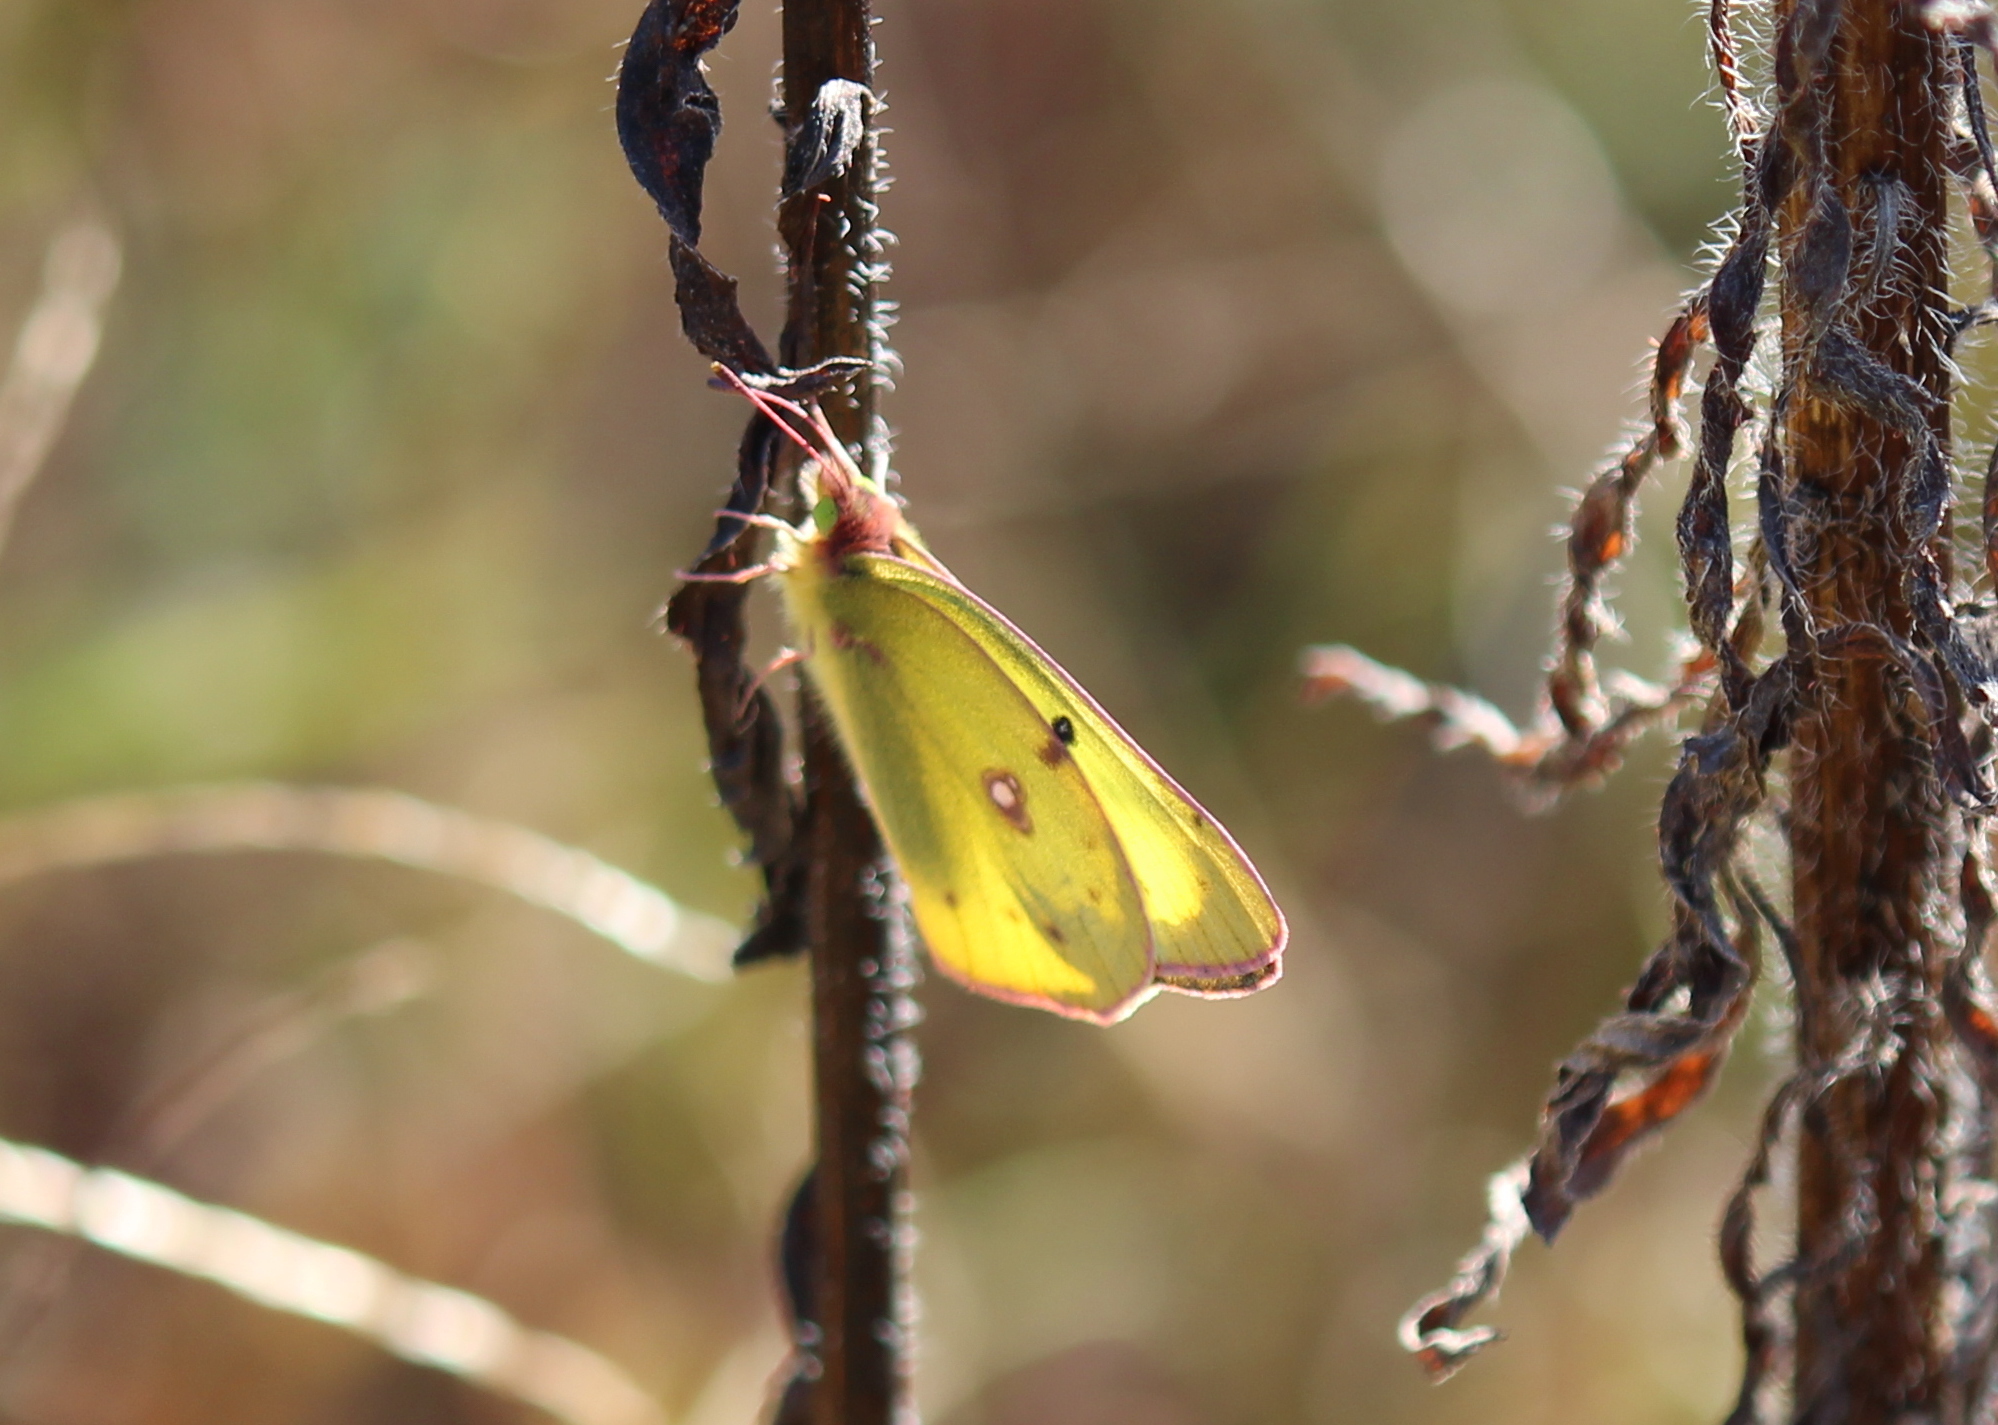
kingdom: Animalia
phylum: Arthropoda
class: Insecta
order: Lepidoptera
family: Pieridae
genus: Colias
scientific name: Colias philodice
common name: Clouded sulphur
